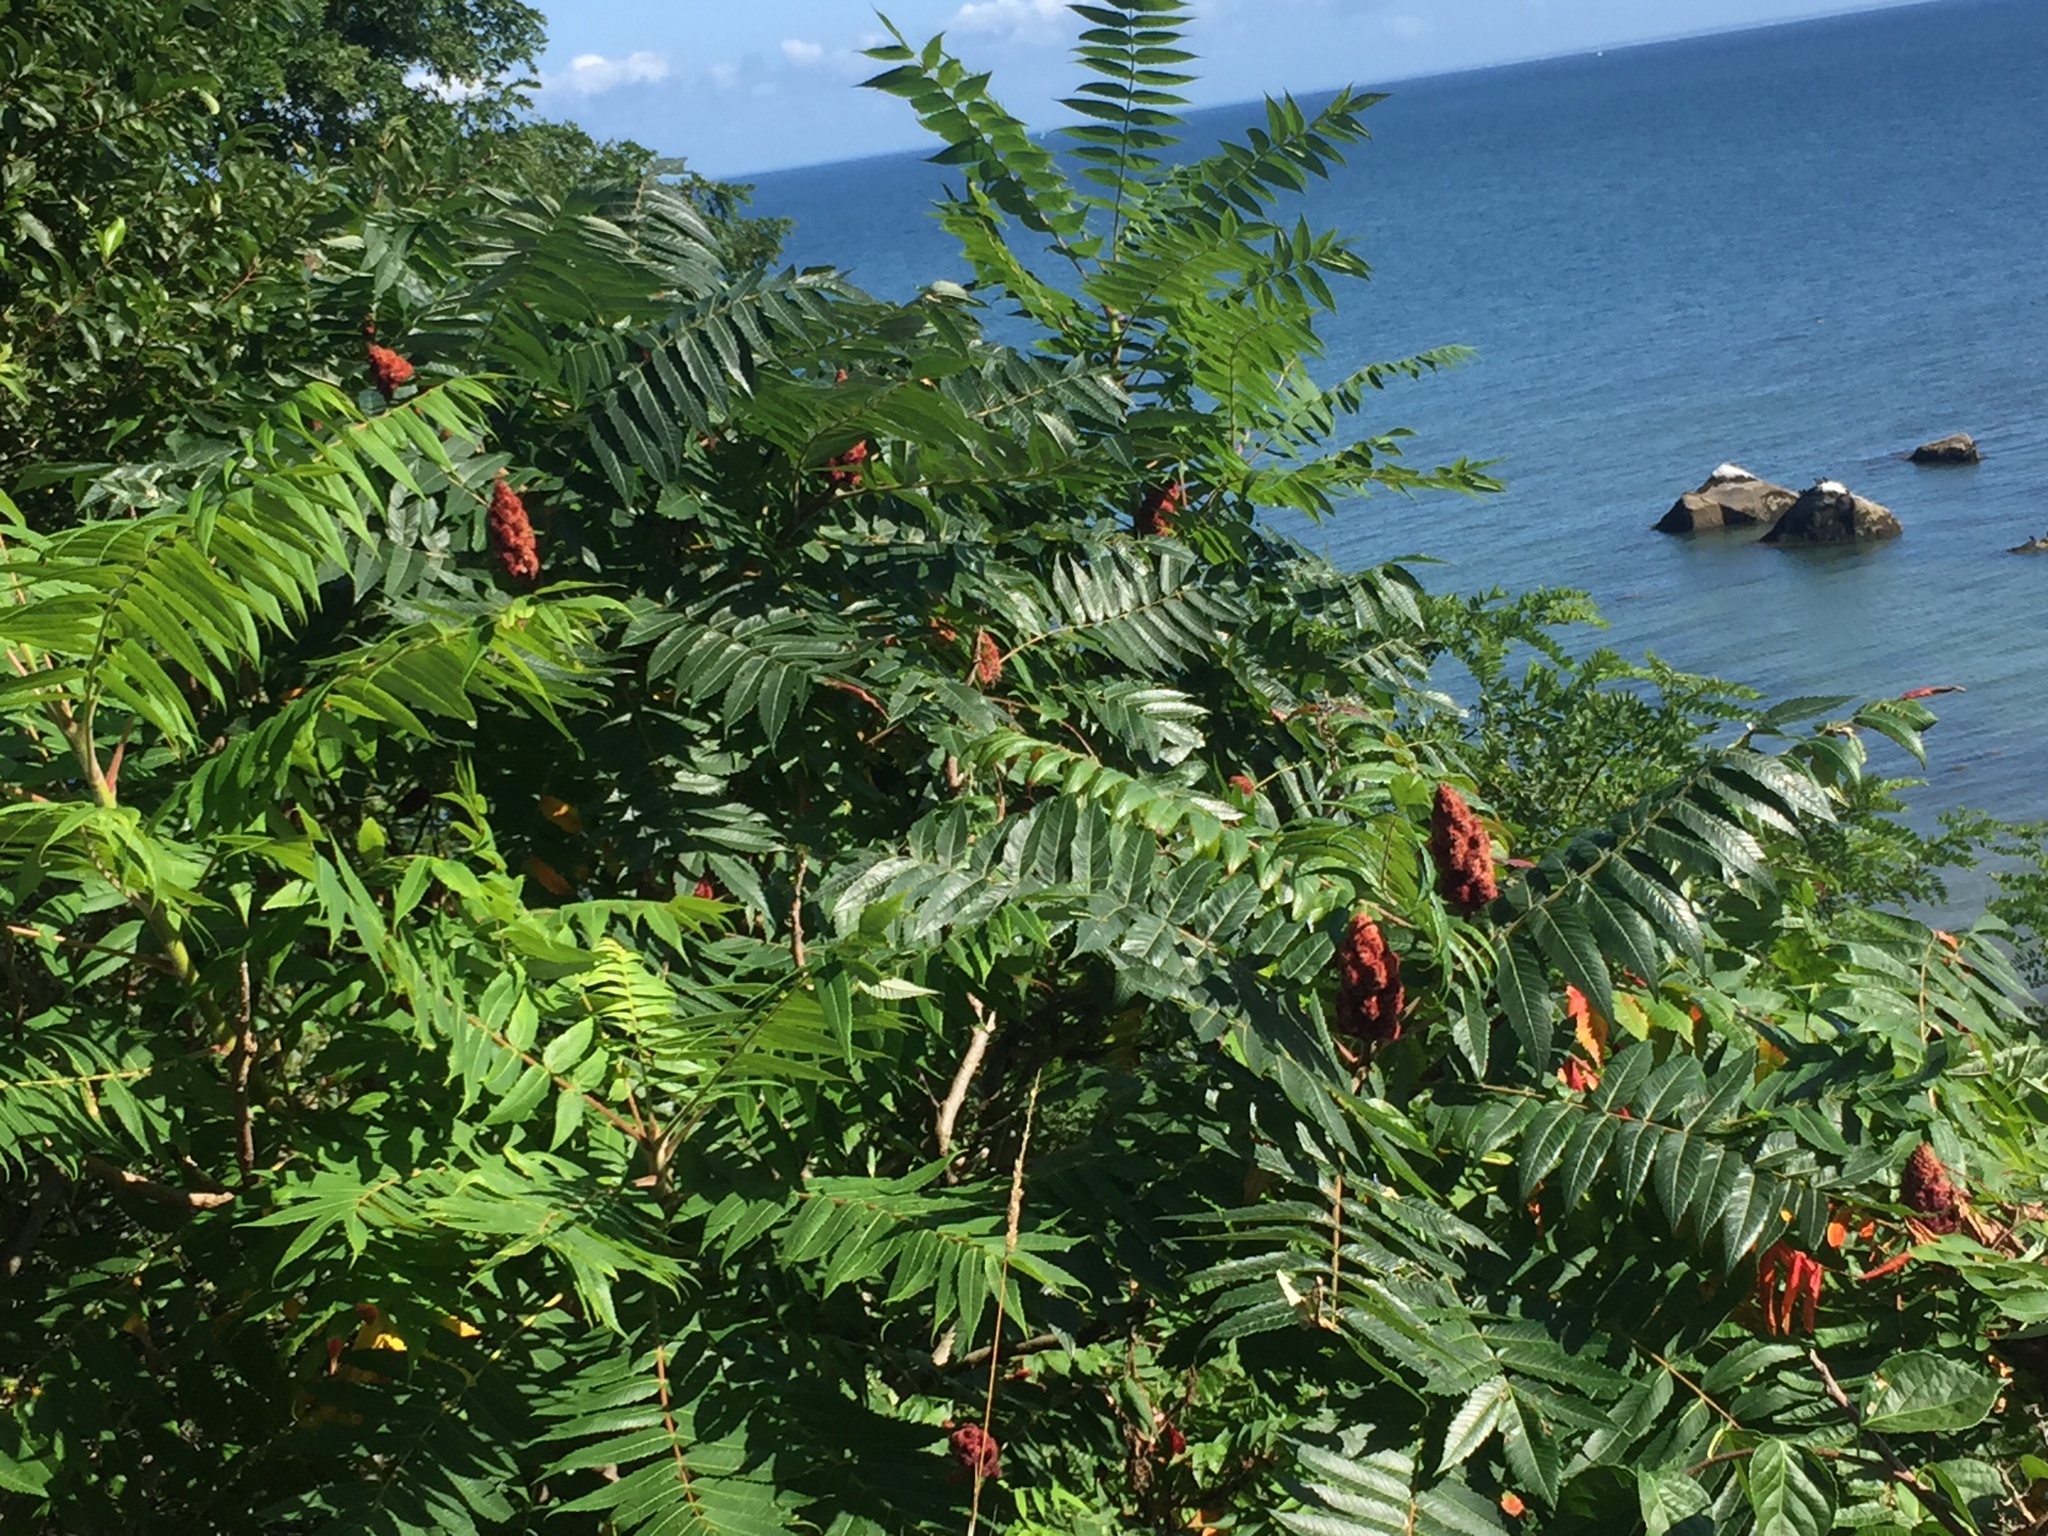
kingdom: Plantae
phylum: Tracheophyta
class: Magnoliopsida
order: Sapindales
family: Anacardiaceae
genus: Rhus
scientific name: Rhus typhina
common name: Staghorn sumac
